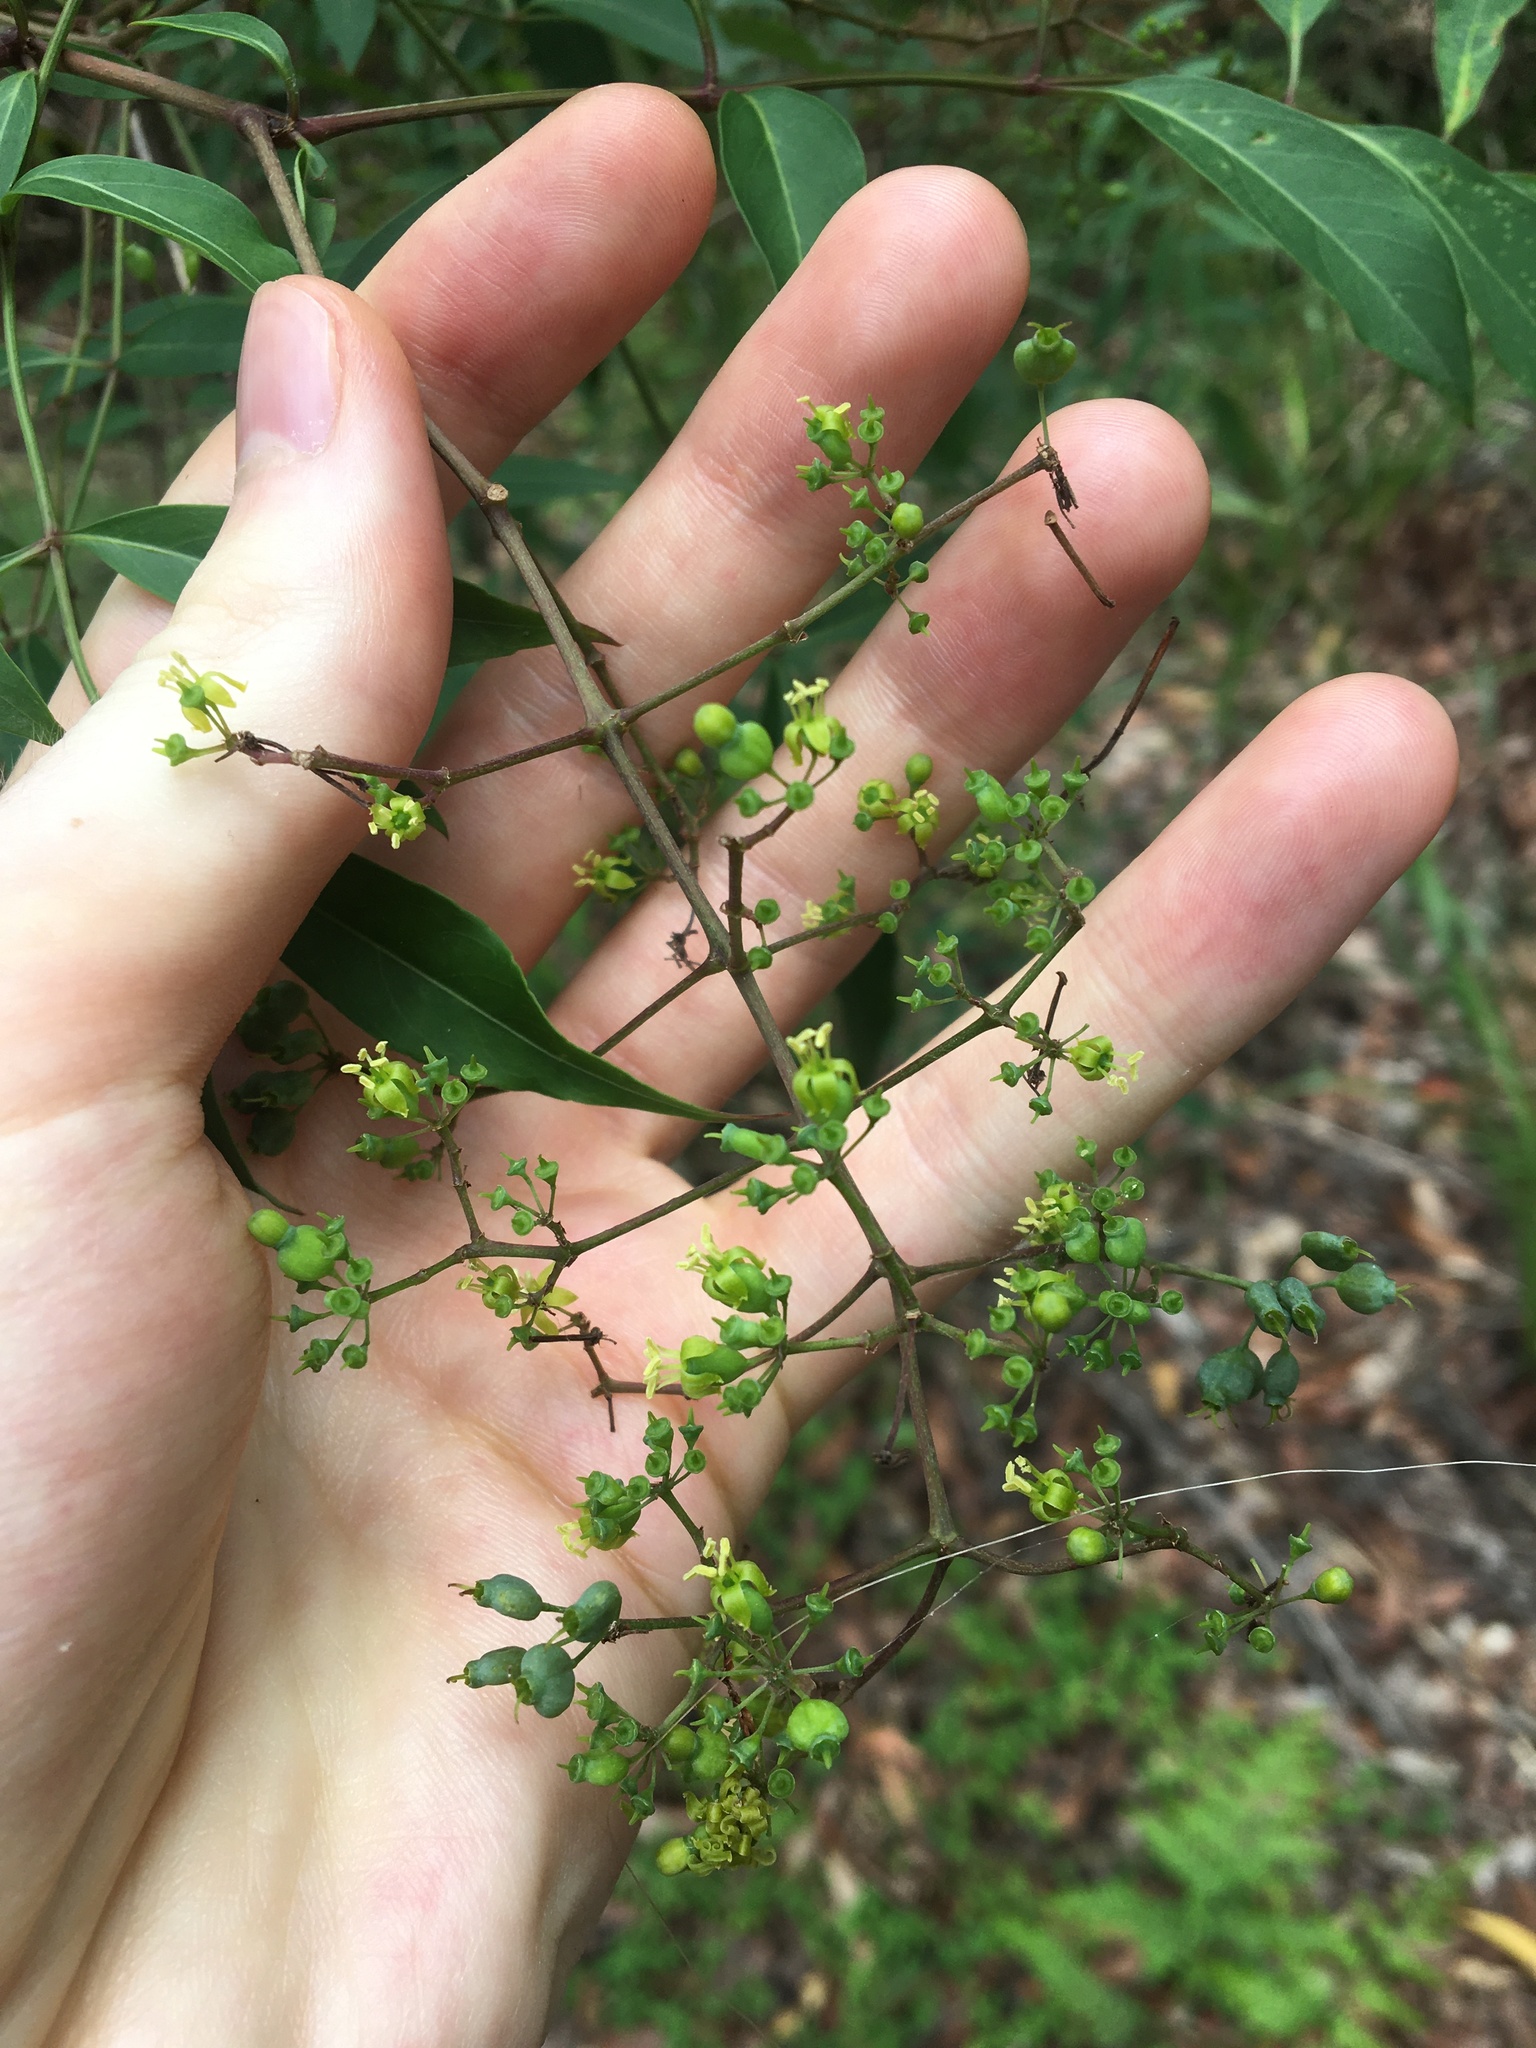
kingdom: Plantae
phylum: Tracheophyta
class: Magnoliopsida
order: Apiales
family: Araliaceae
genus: Polyscias
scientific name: Polyscias sambucifolia
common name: Elderberry-ash
